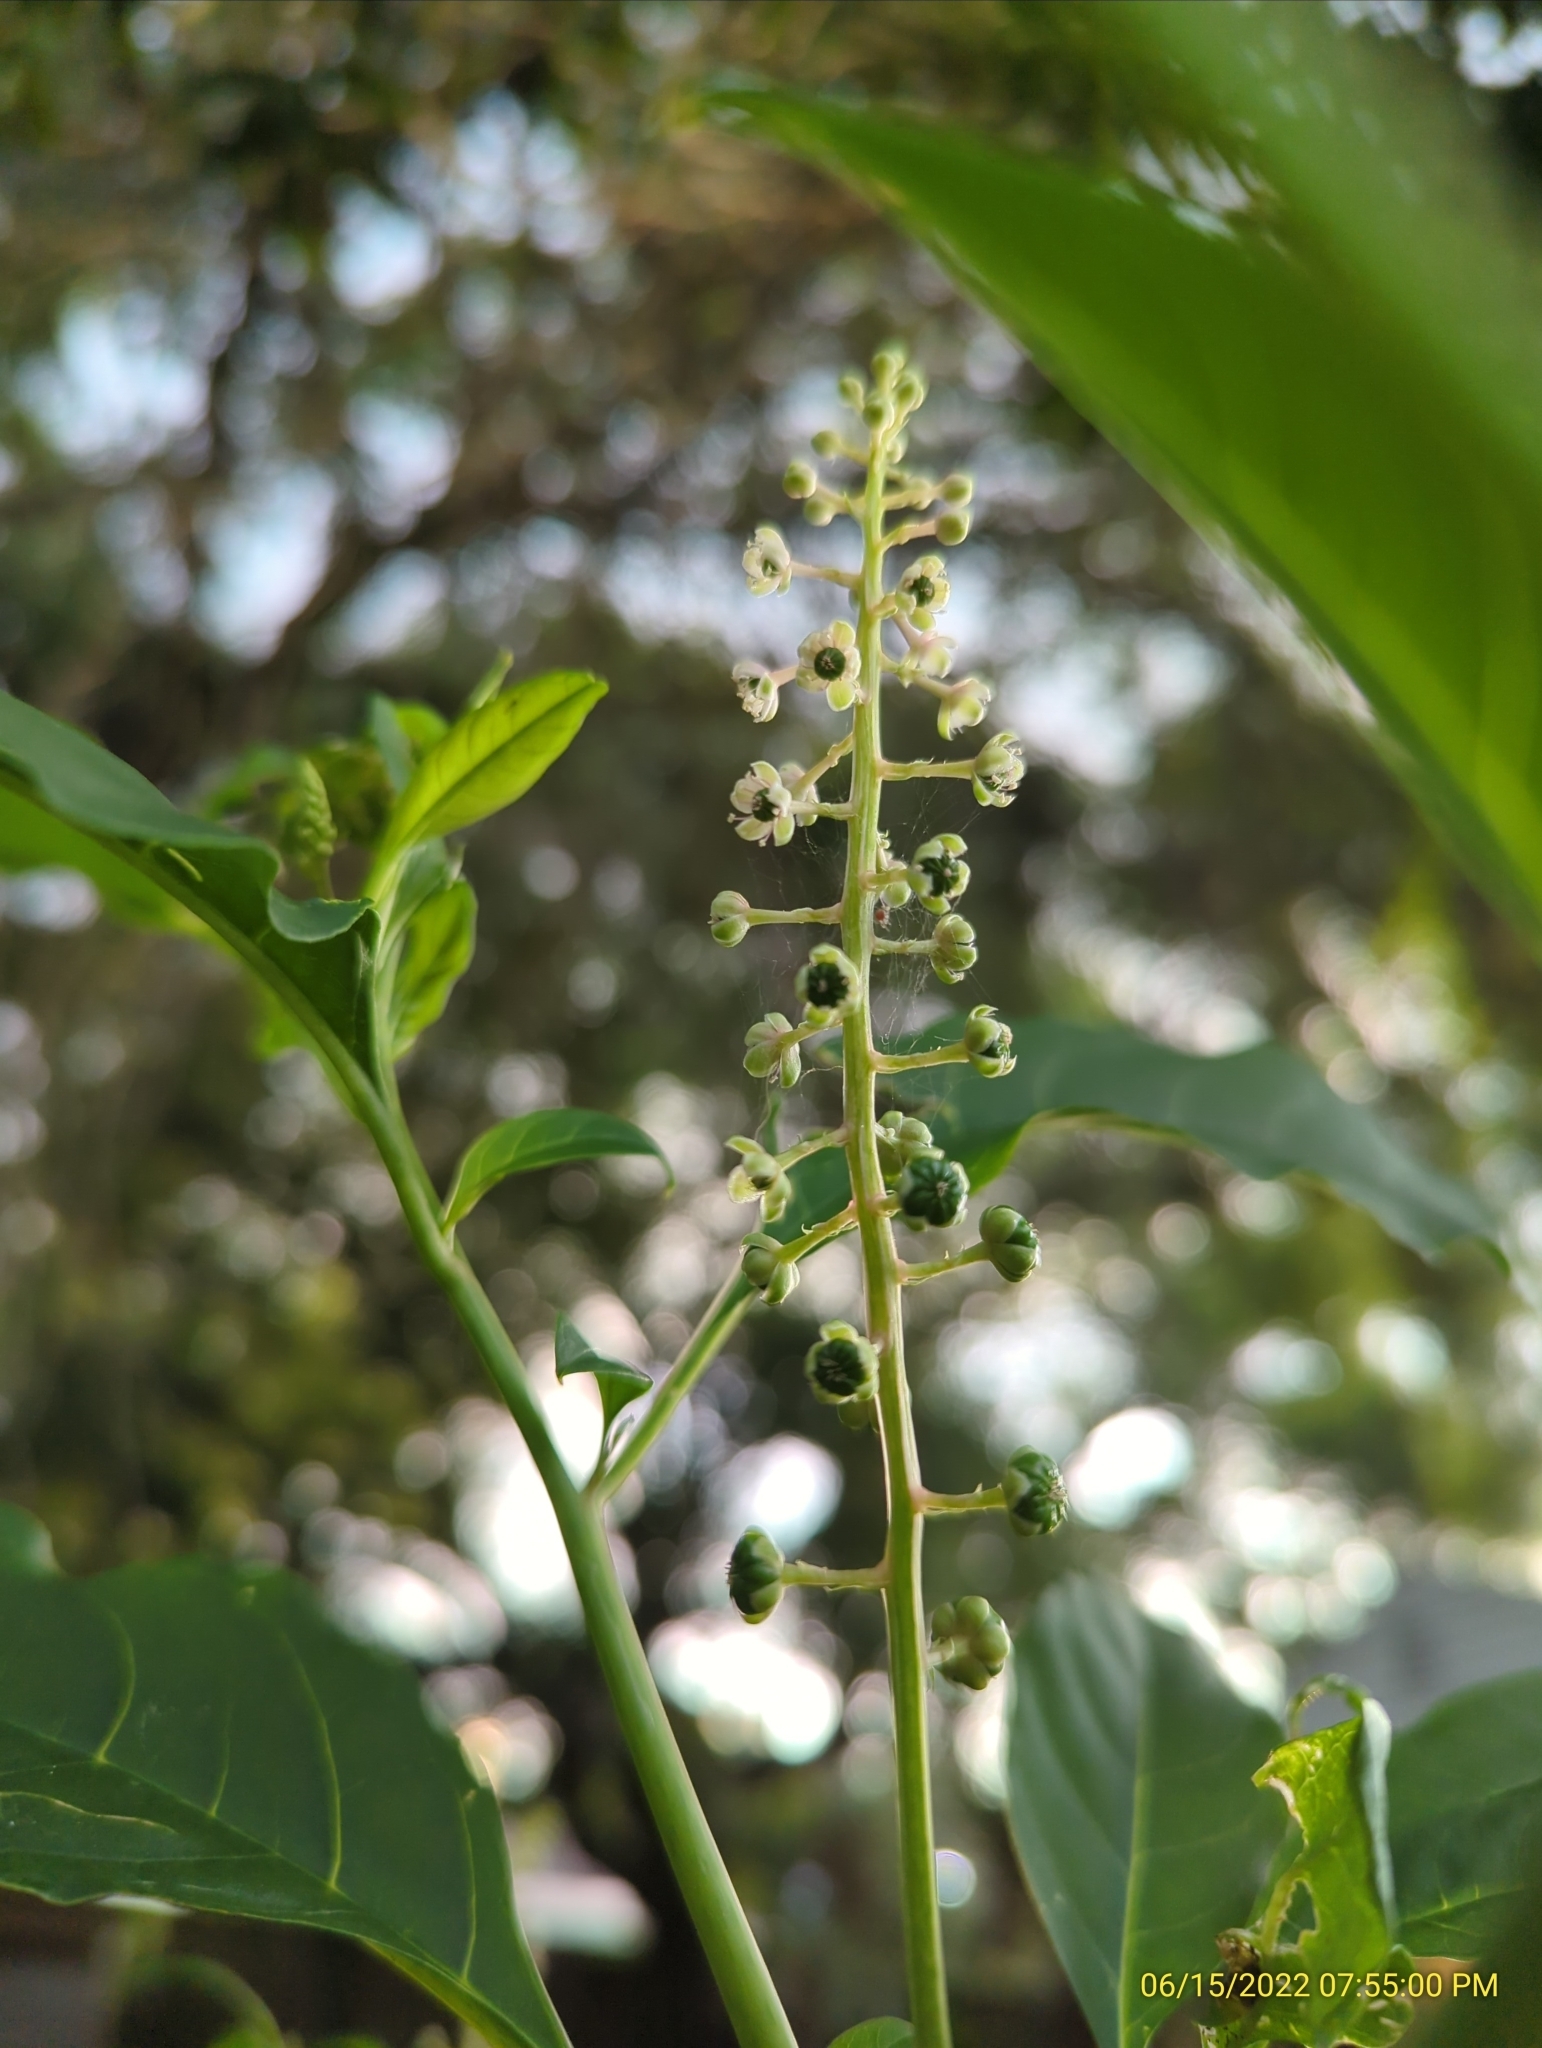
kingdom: Plantae
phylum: Tracheophyta
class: Magnoliopsida
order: Caryophyllales
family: Phytolaccaceae
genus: Phytolacca
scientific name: Phytolacca americana
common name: American pokeweed
